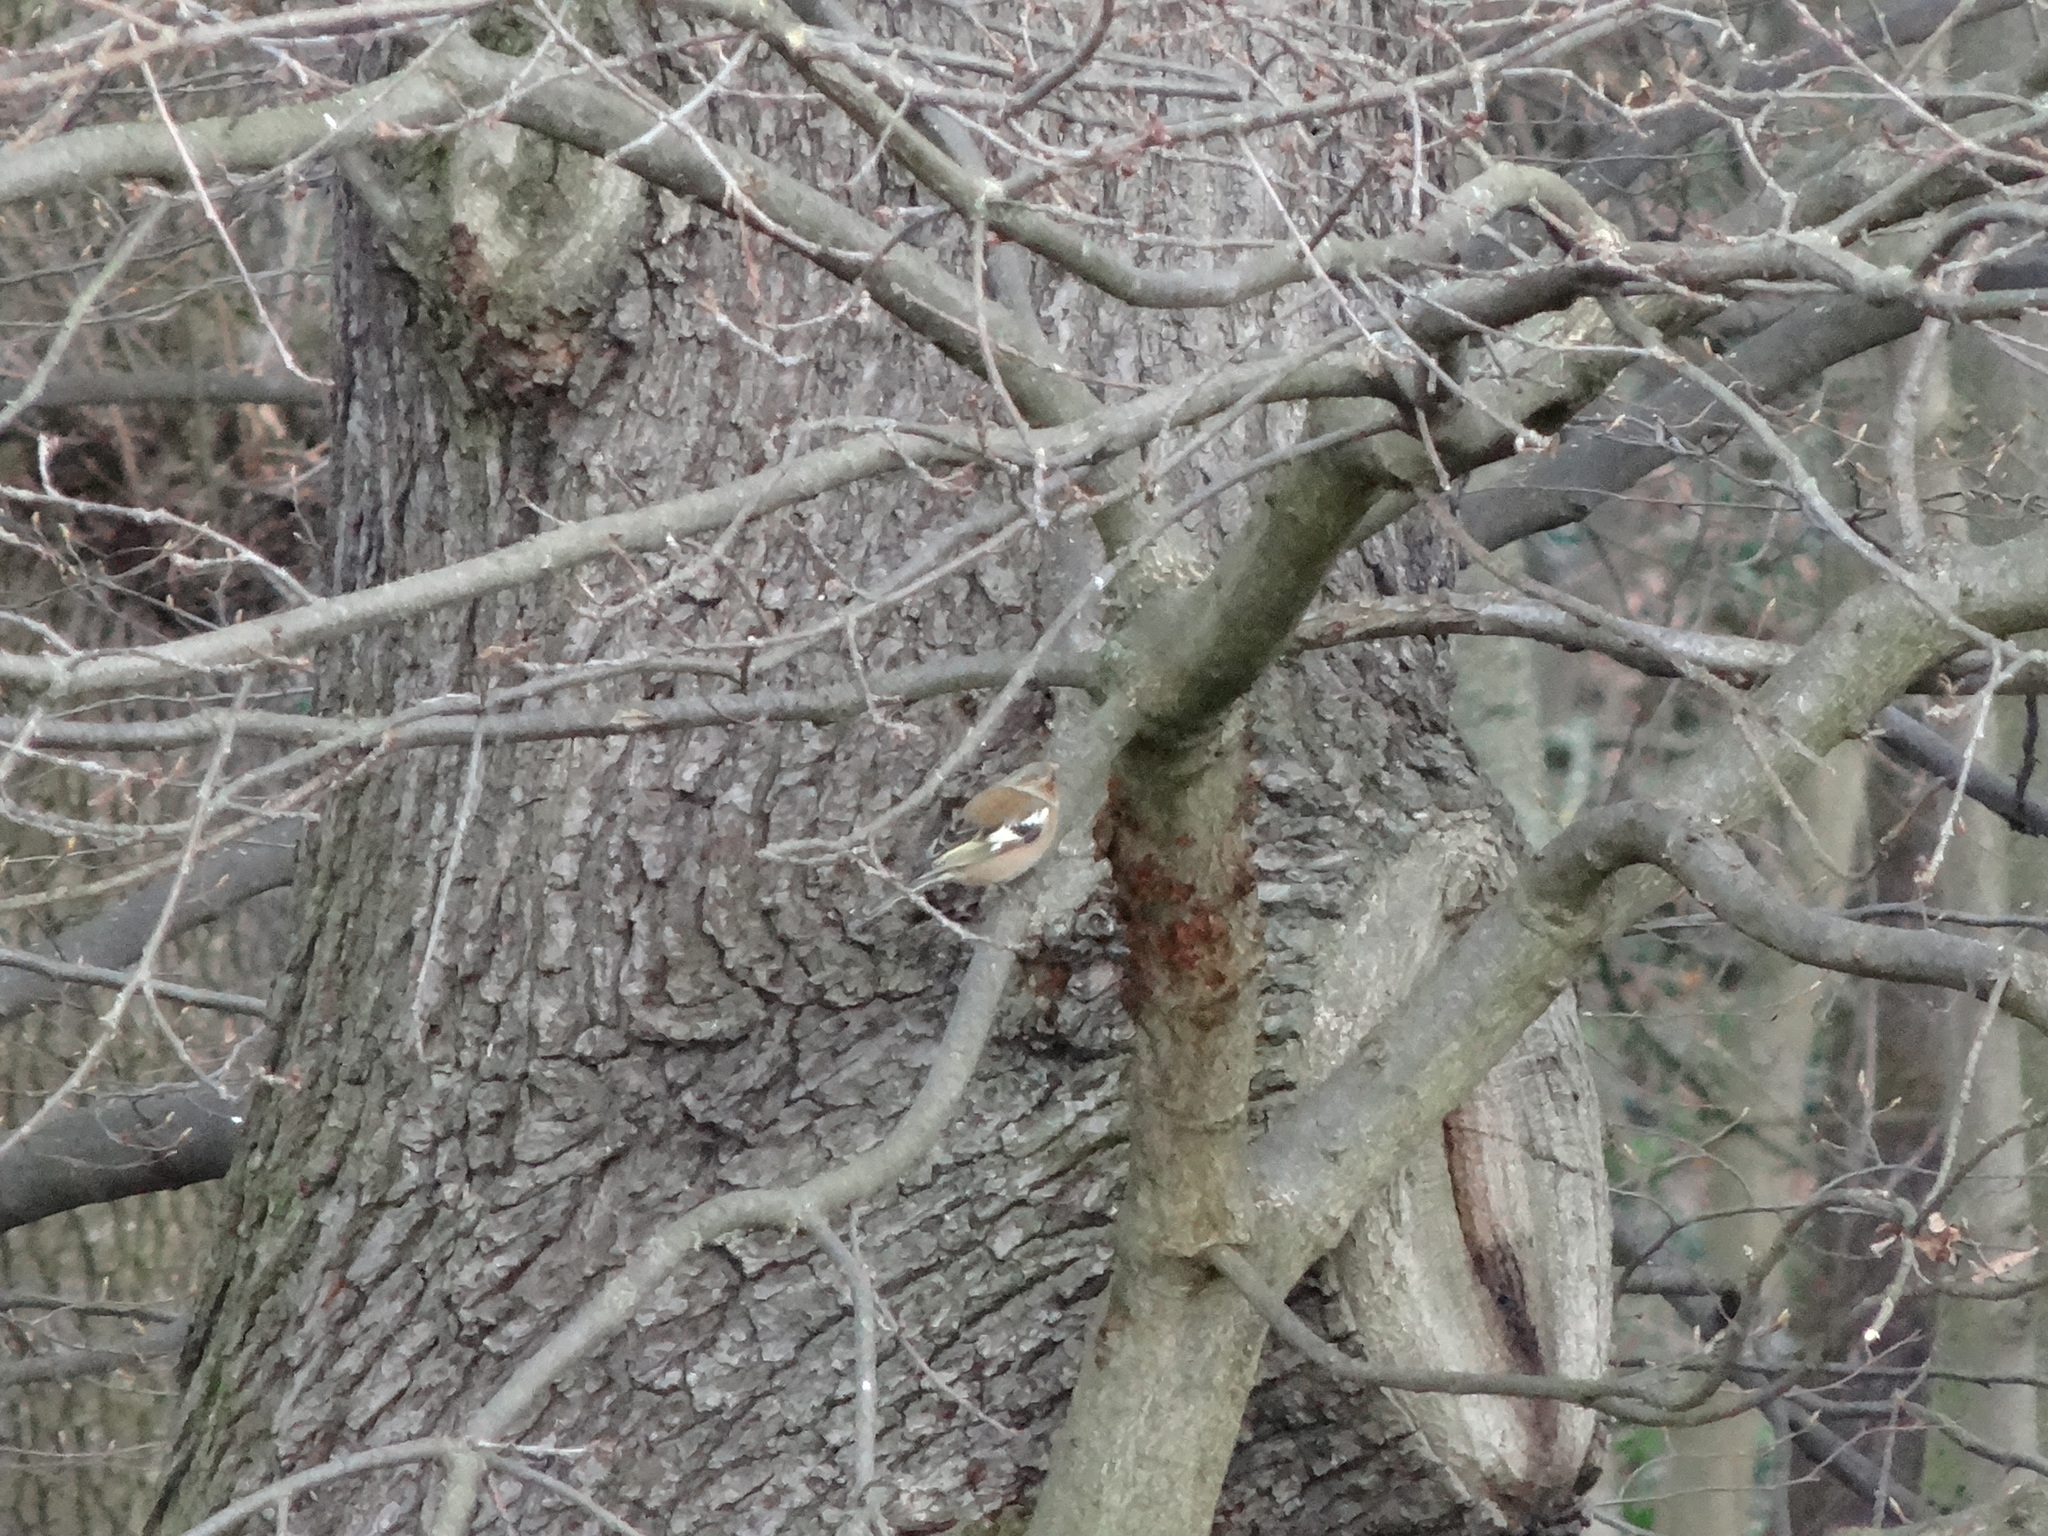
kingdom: Animalia
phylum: Chordata
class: Aves
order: Passeriformes
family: Fringillidae
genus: Fringilla
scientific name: Fringilla coelebs
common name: Common chaffinch
